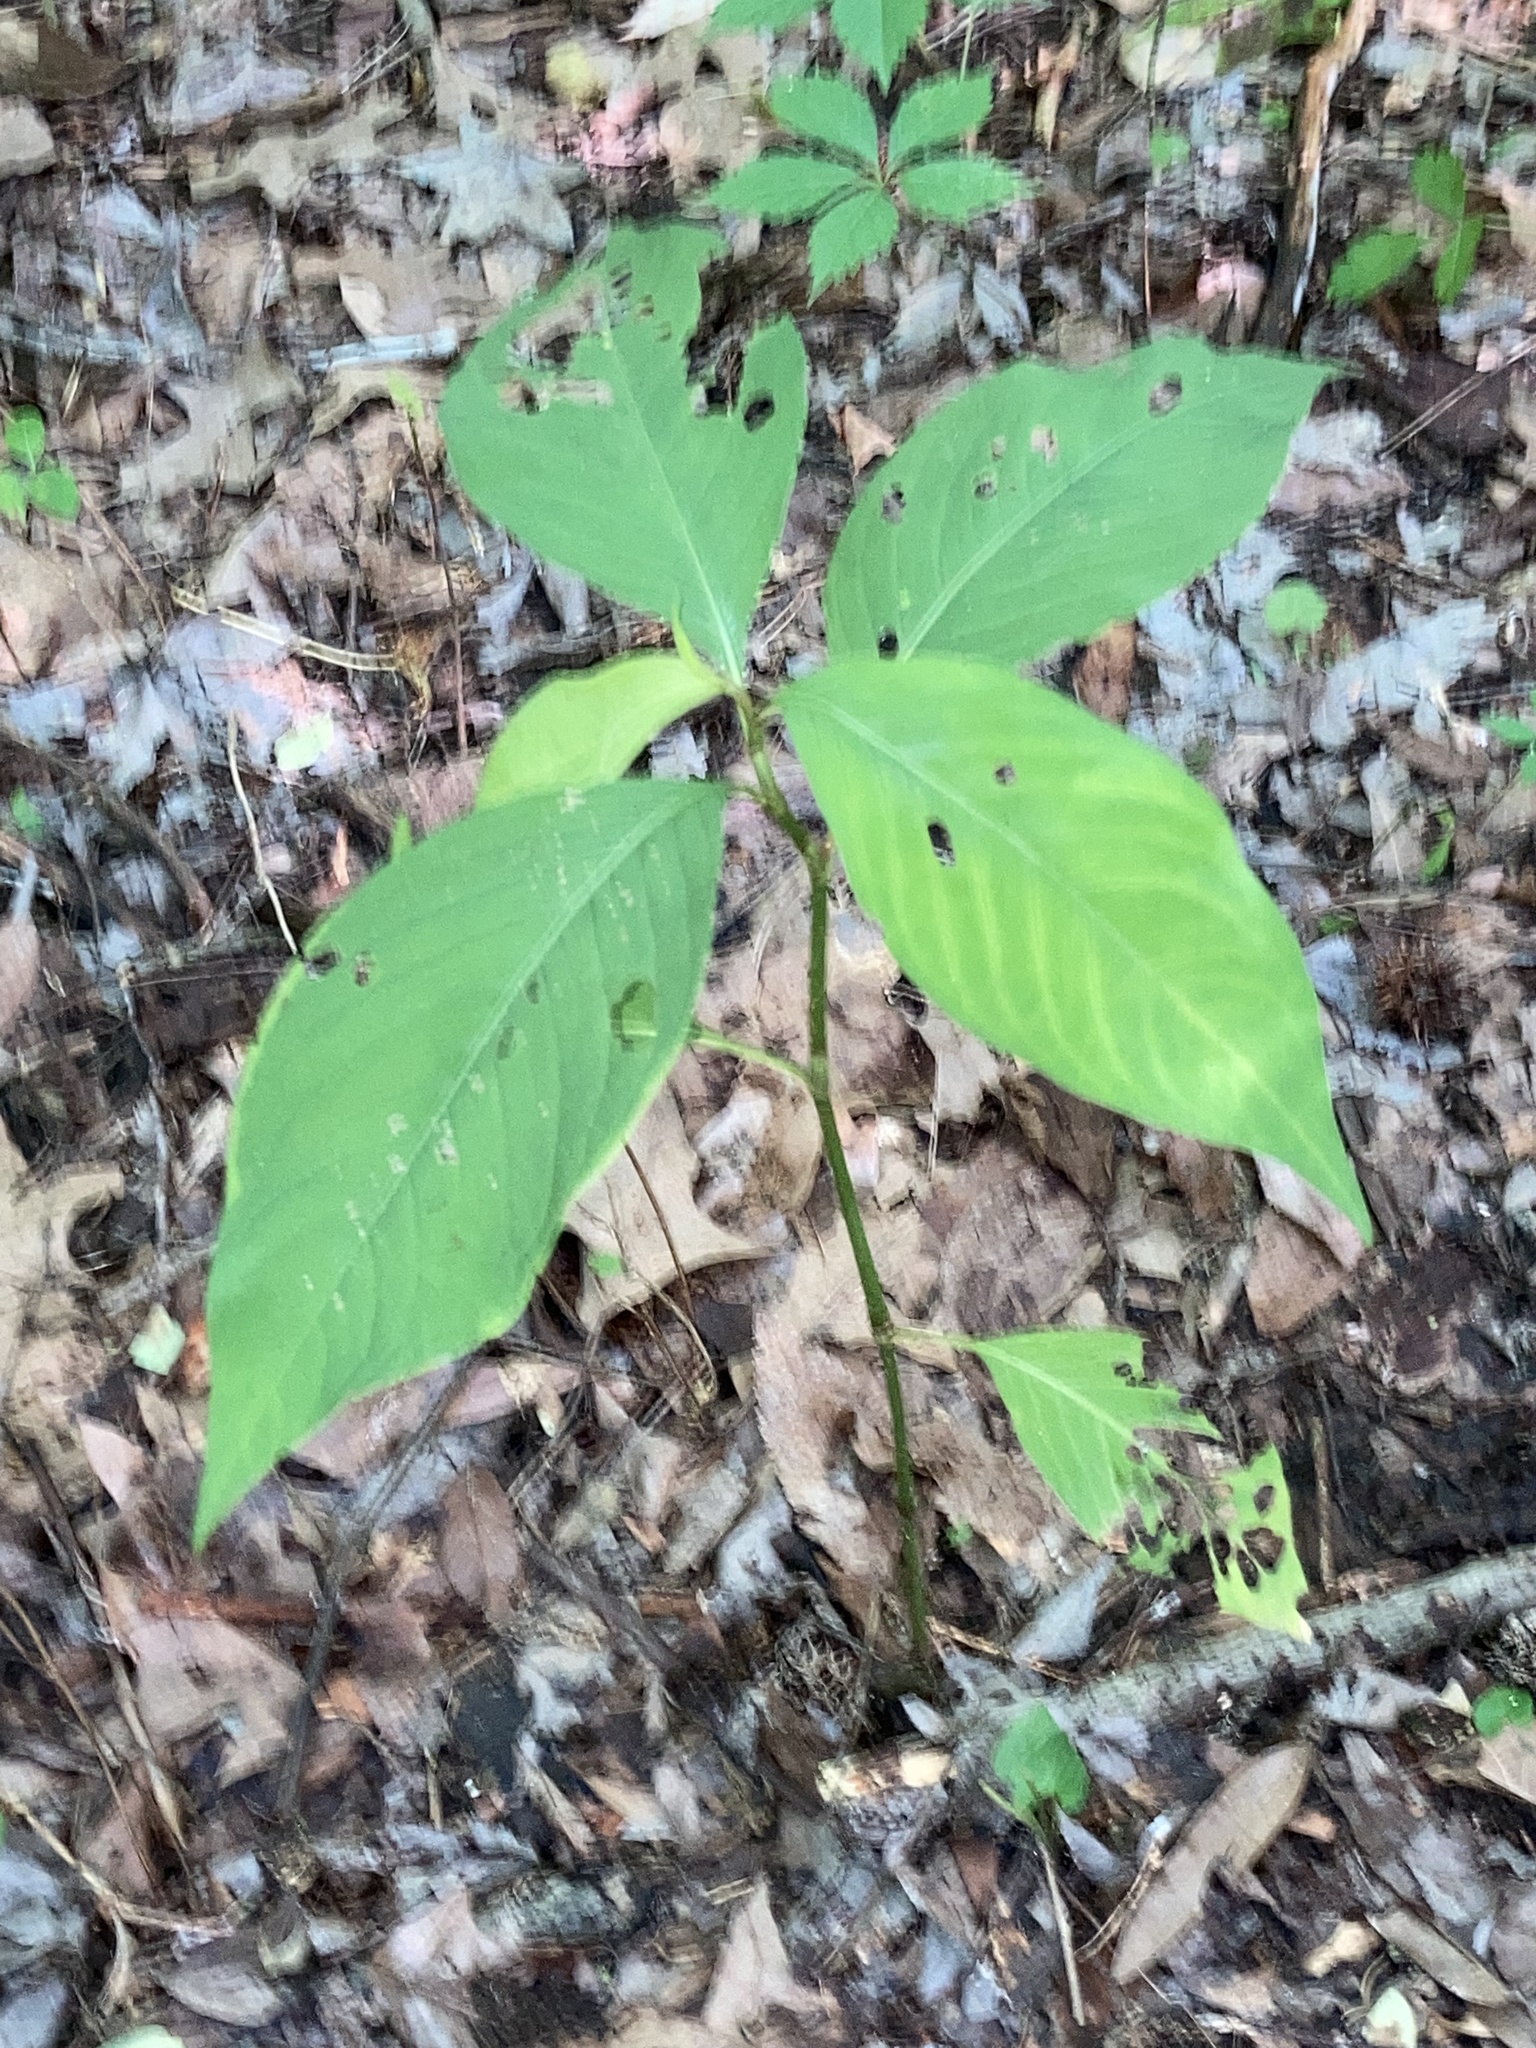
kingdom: Plantae
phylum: Tracheophyta
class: Magnoliopsida
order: Caryophyllales
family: Polygonaceae
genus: Persicaria
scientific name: Persicaria virginiana
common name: Jumpseed
